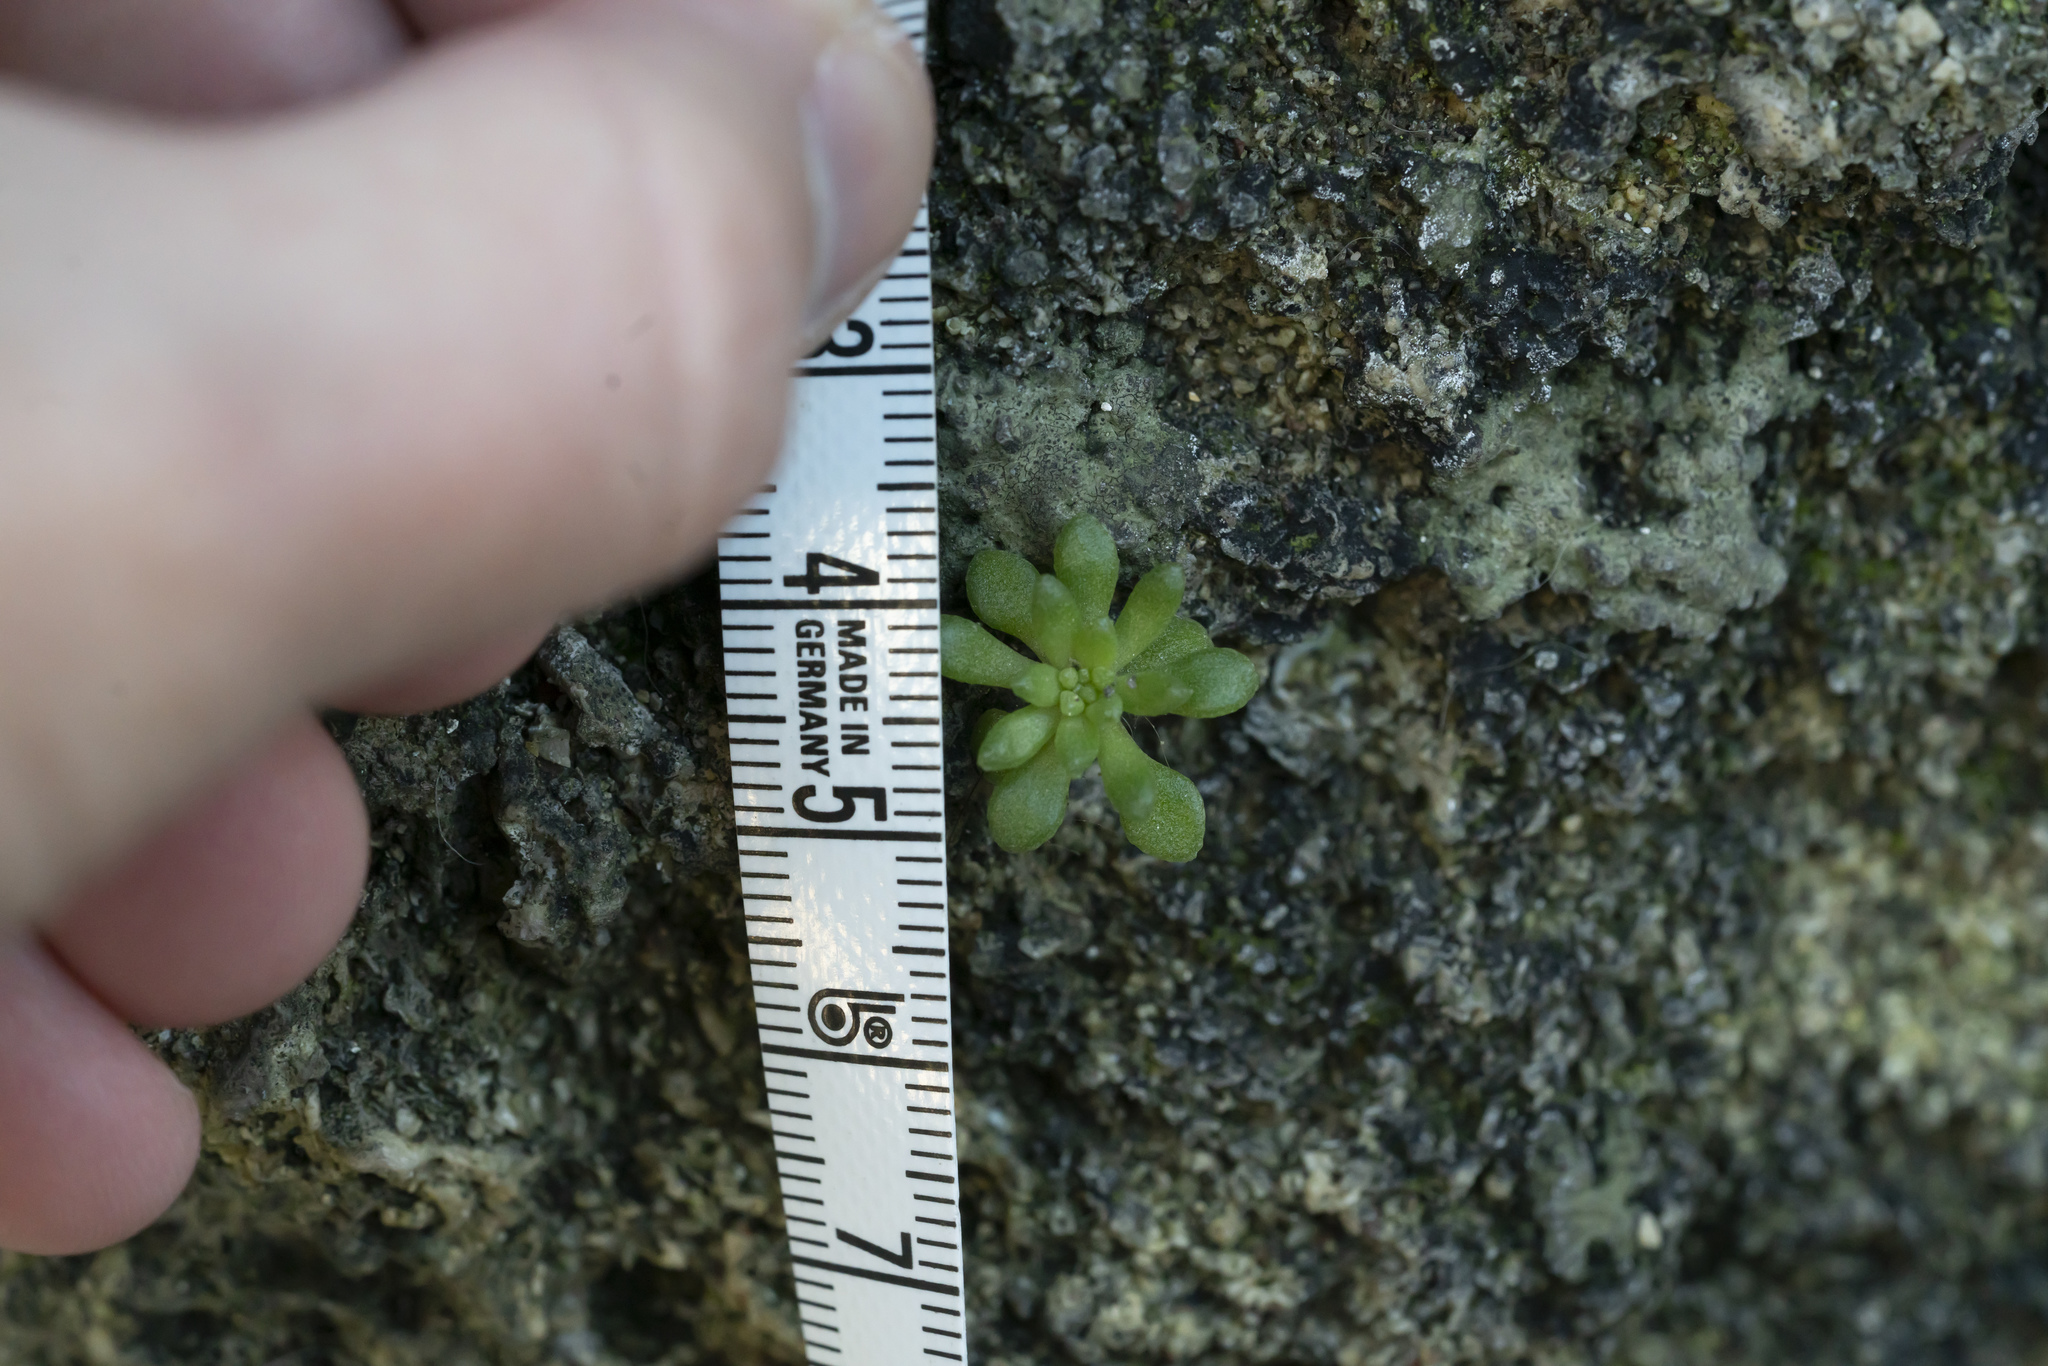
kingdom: Plantae
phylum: Tracheophyta
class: Magnoliopsida
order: Saxifragales
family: Crassulaceae
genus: Sedum
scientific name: Sedum litoreum
